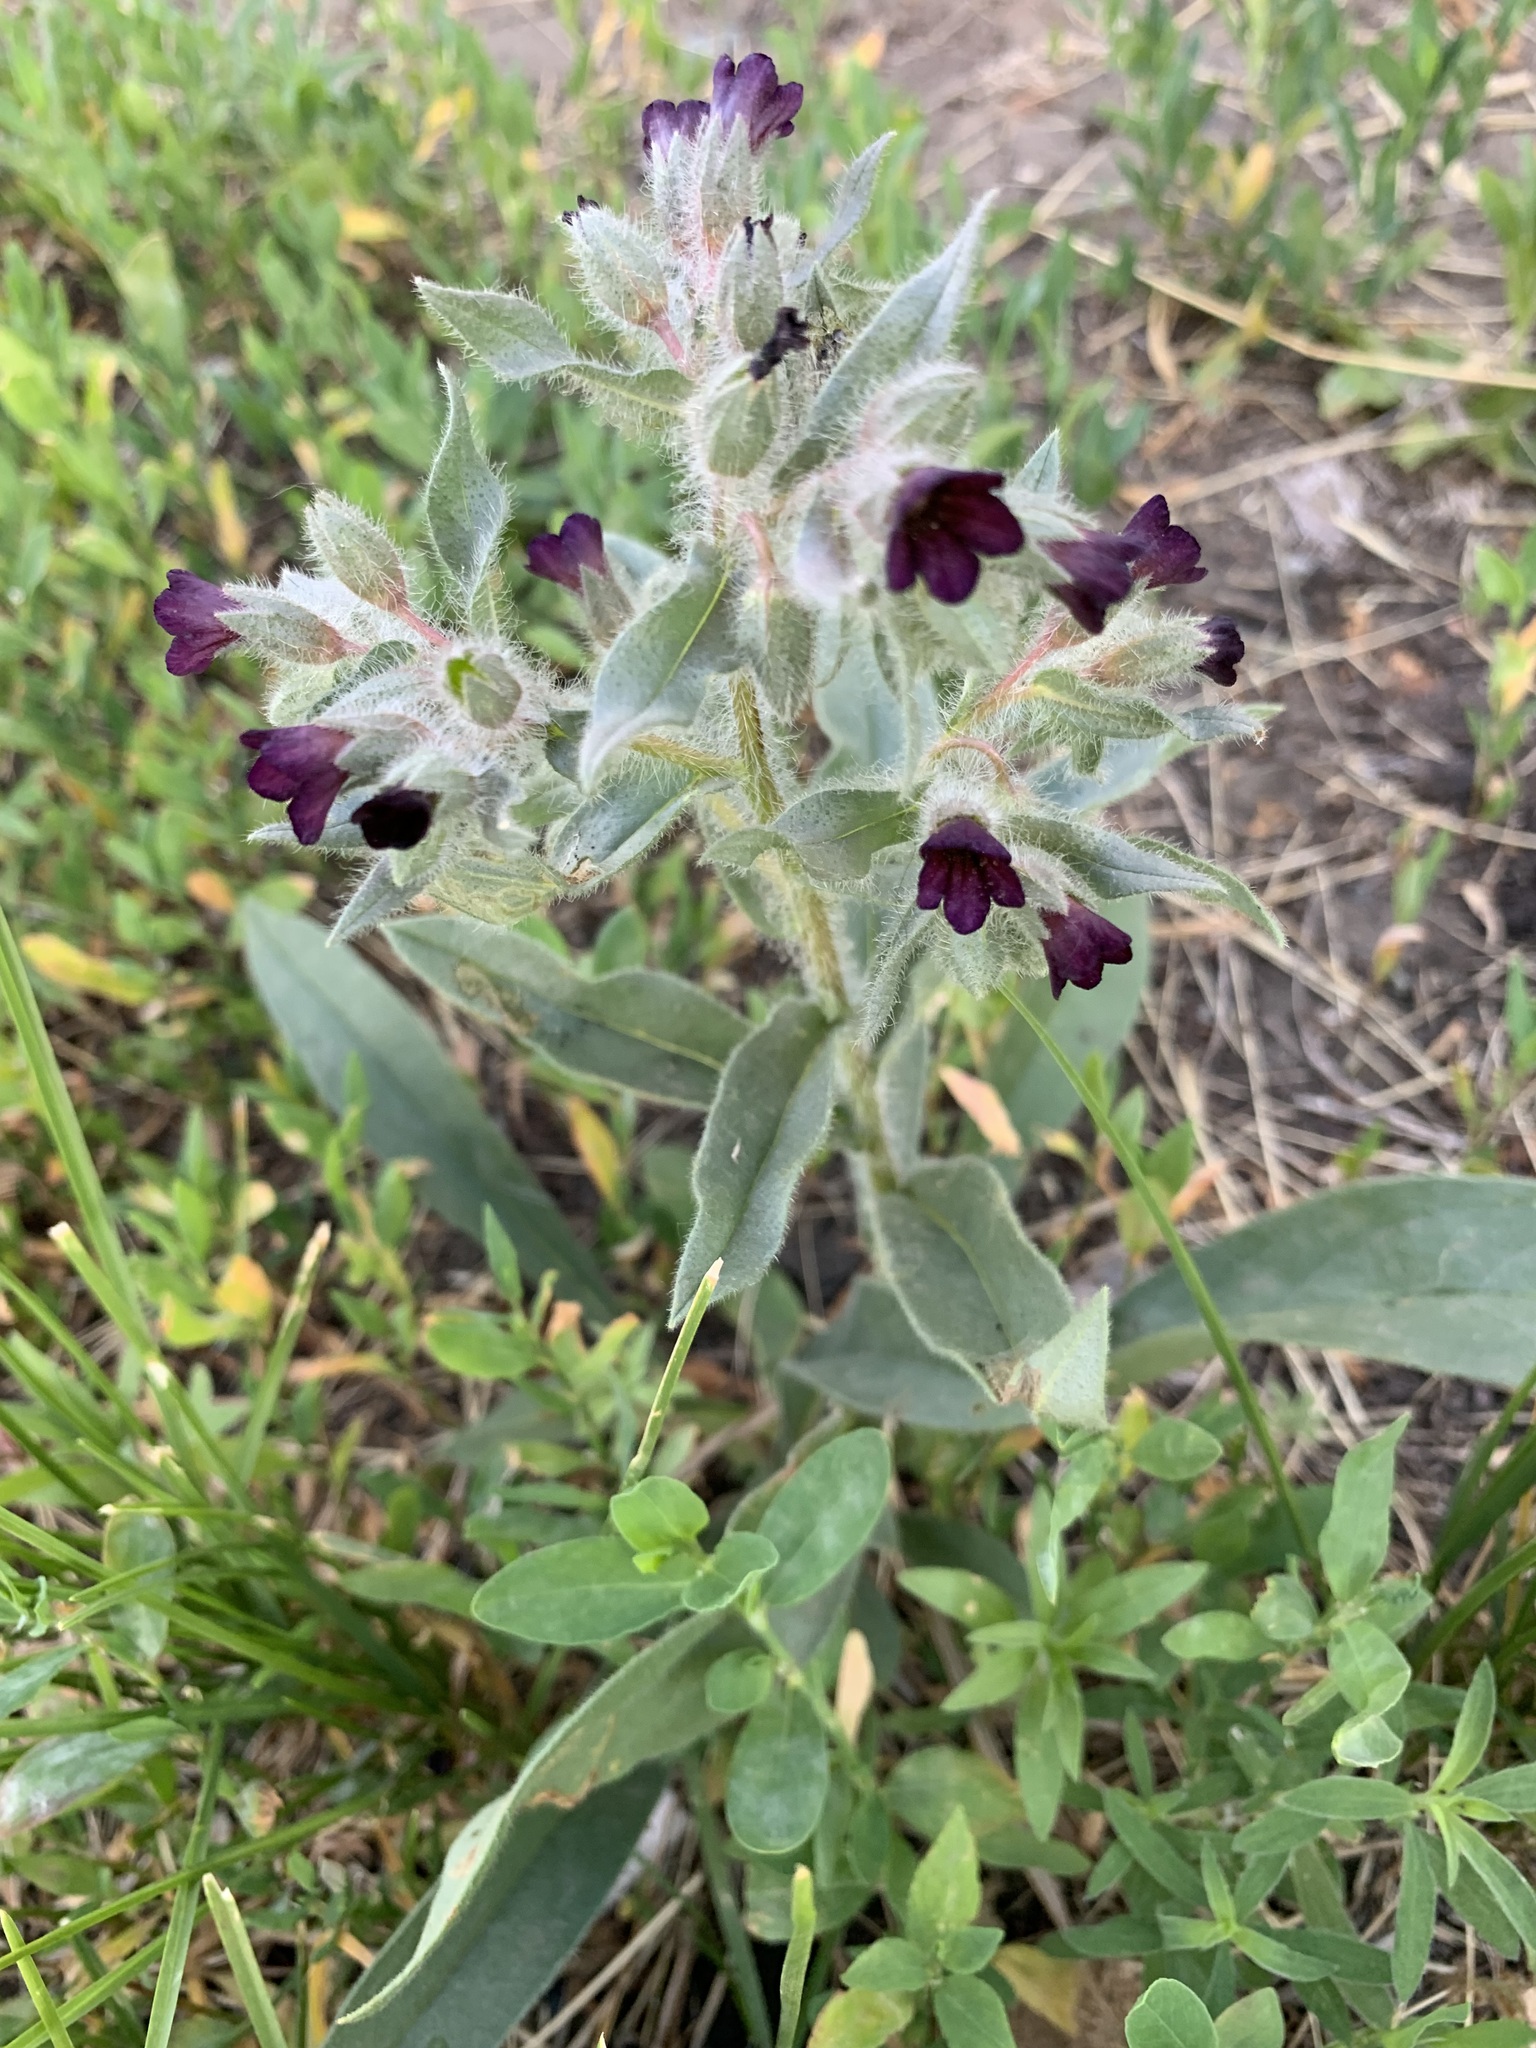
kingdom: Plantae
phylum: Tracheophyta
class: Magnoliopsida
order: Boraginales
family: Boraginaceae
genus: Nonea
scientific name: Nonea pulla
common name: Brown nonea
